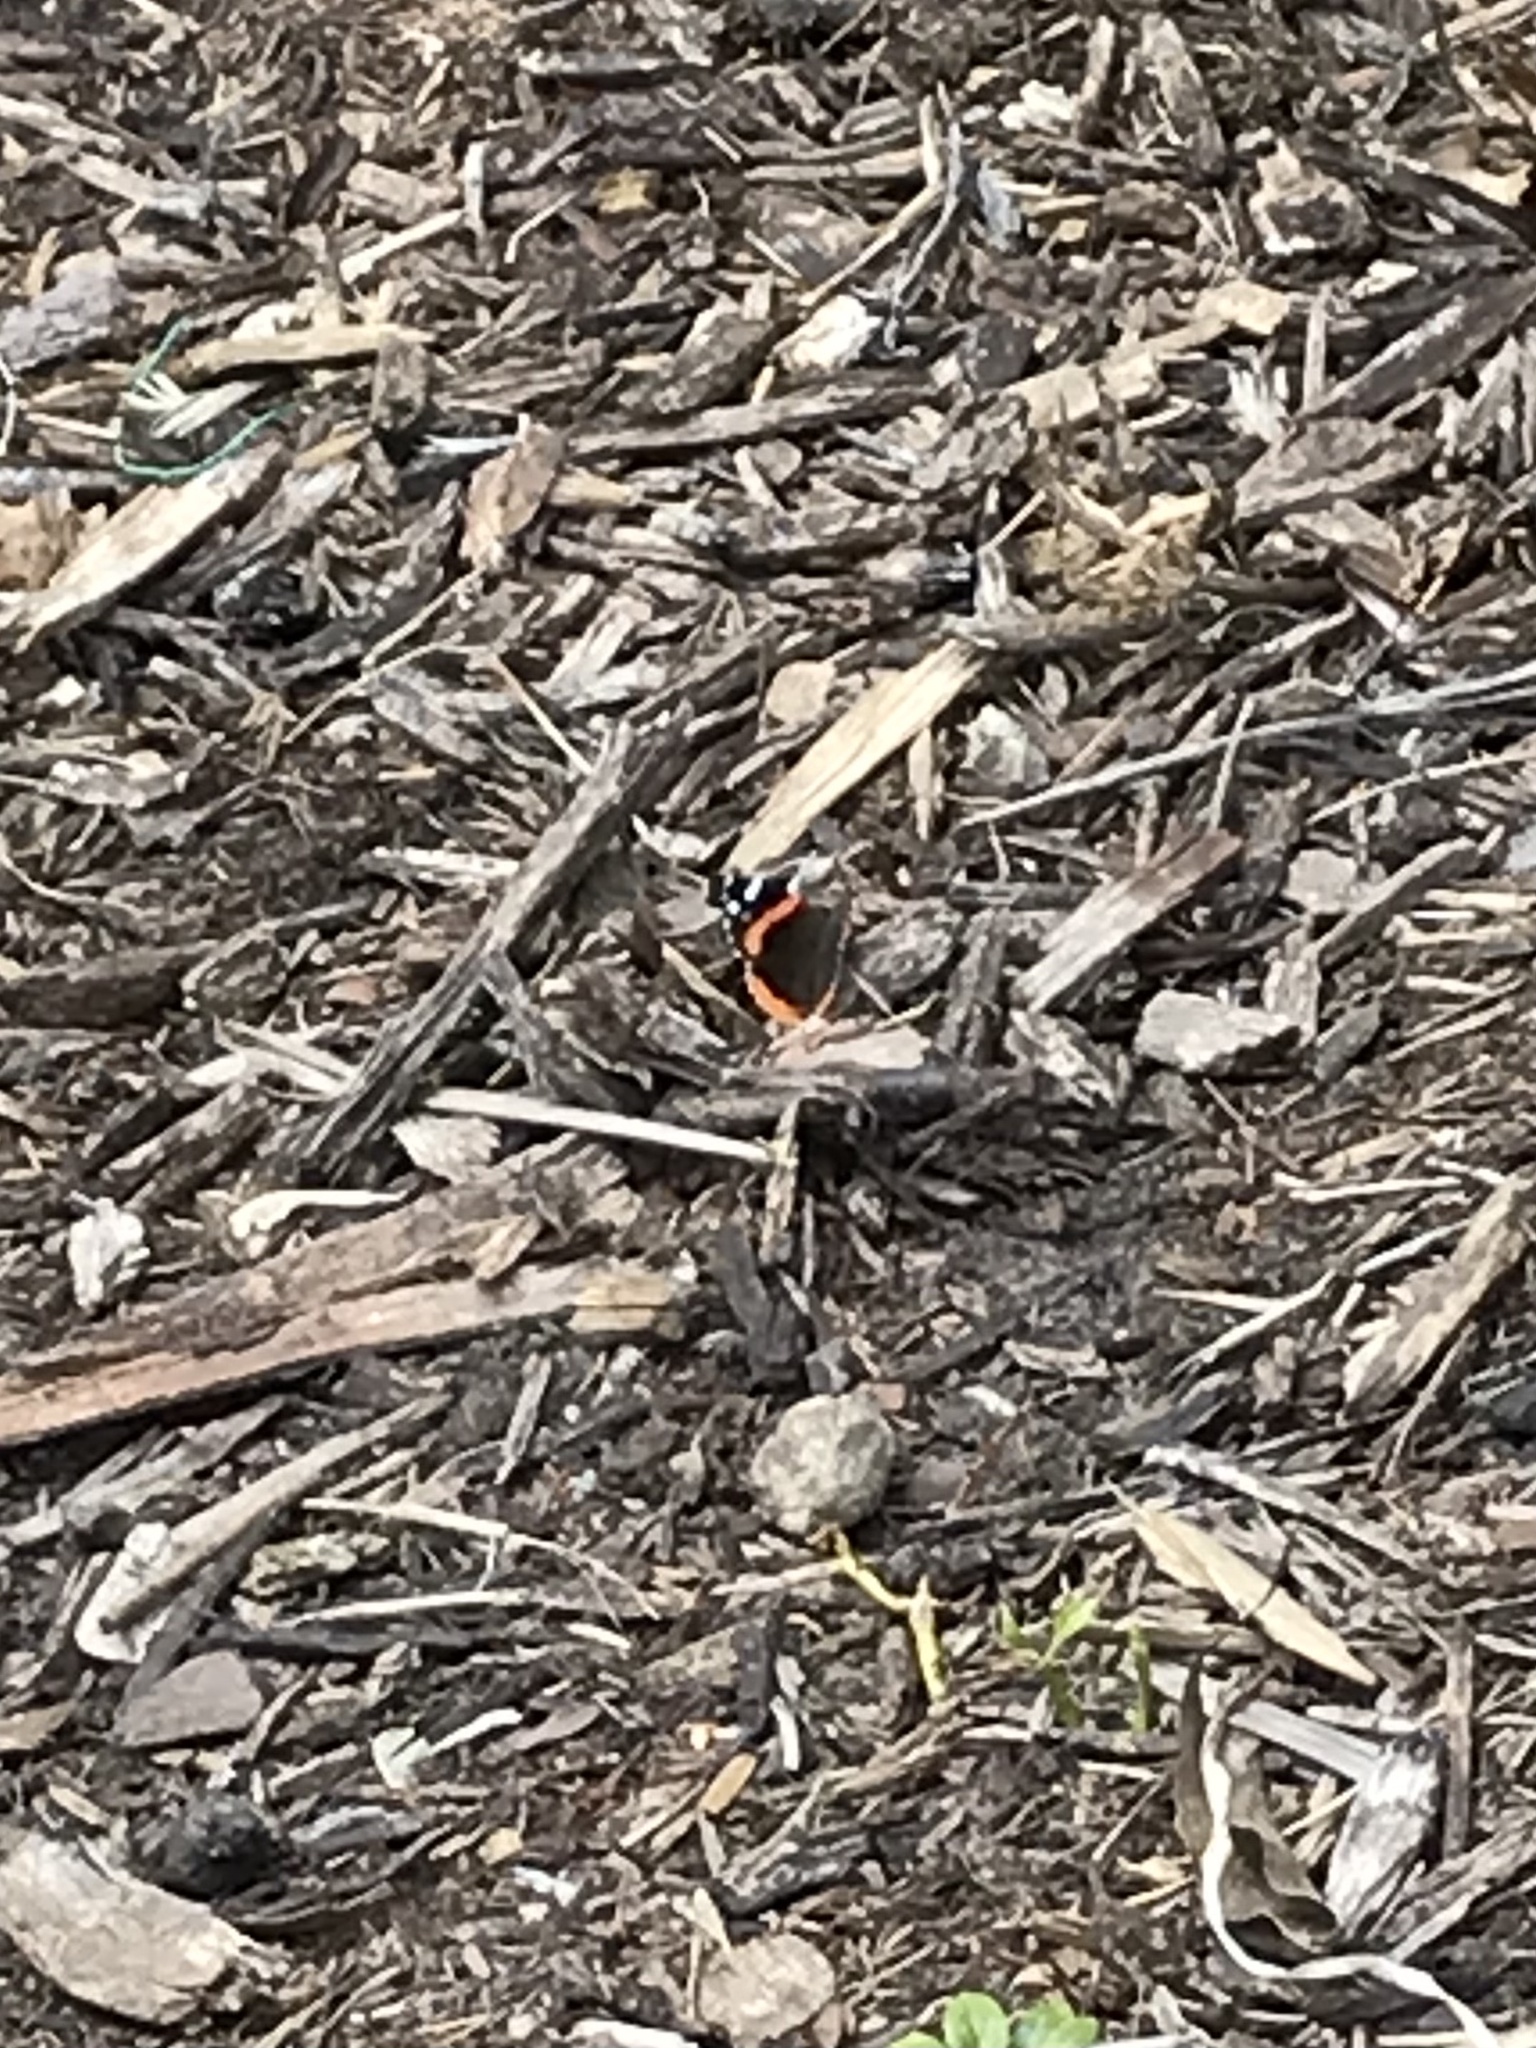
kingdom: Animalia
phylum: Arthropoda
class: Insecta
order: Lepidoptera
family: Nymphalidae
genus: Vanessa
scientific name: Vanessa atalanta
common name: Red admiral
